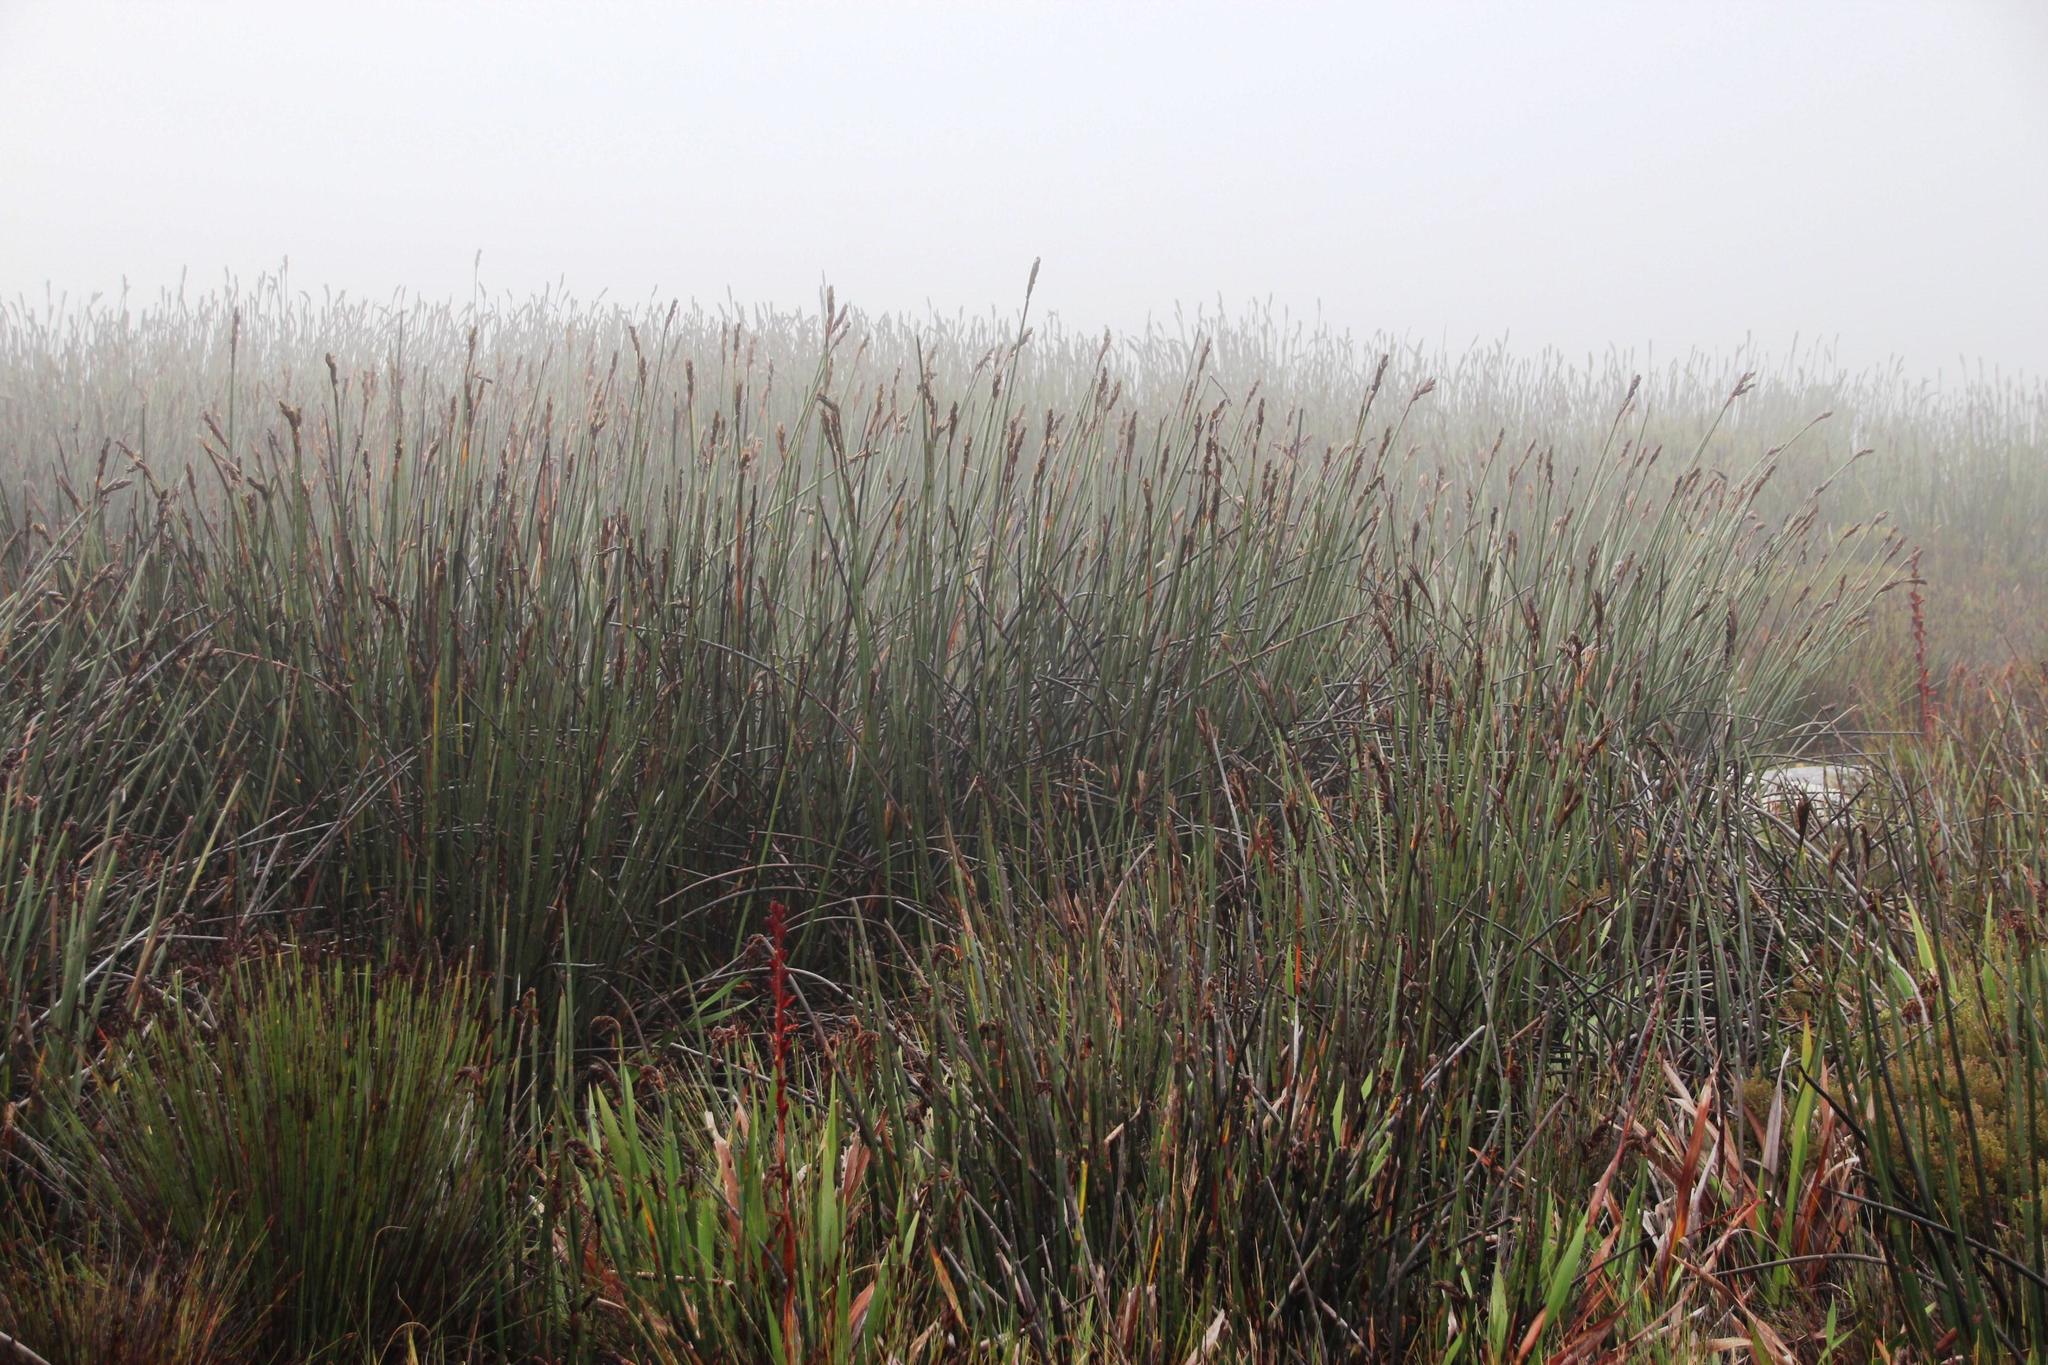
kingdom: Plantae
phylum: Tracheophyta
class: Liliopsida
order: Poales
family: Restionaceae
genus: Elegia
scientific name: Elegia mucronata
